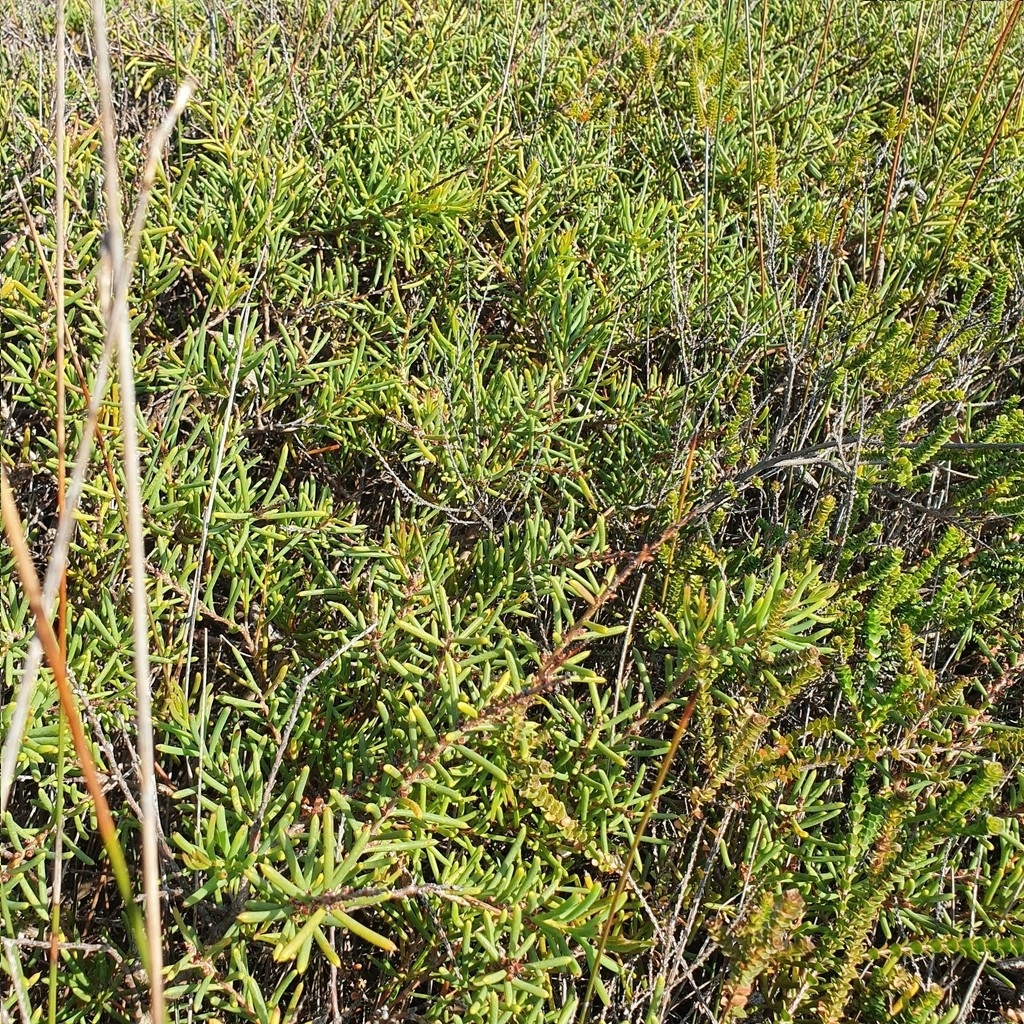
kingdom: Plantae
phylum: Tracheophyta
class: Magnoliopsida
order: Proteales
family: Proteaceae
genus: Hakea
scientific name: Hakea teretifolia
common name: Dagger hakea
